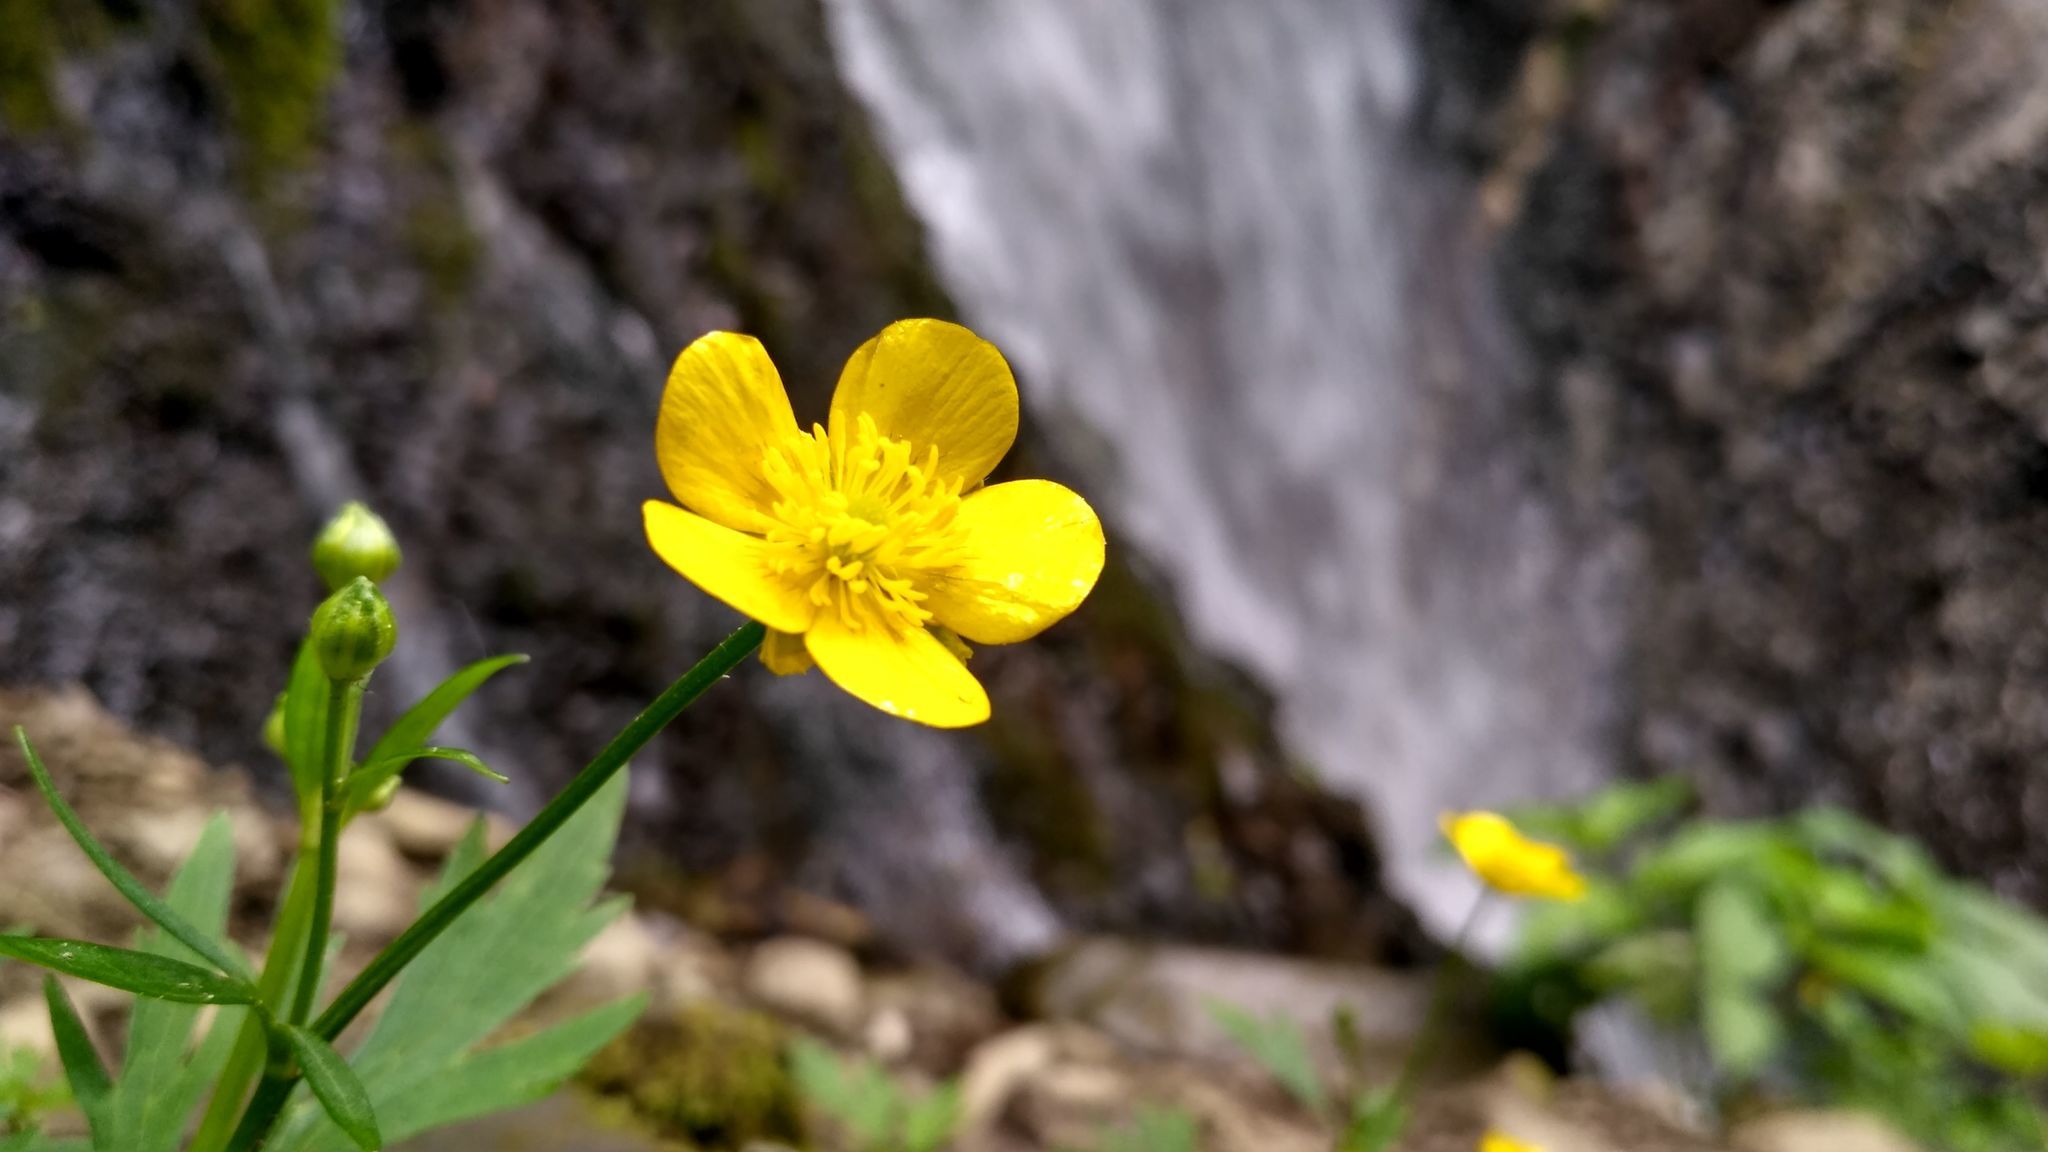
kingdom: Plantae
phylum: Tracheophyta
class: Magnoliopsida
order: Ranunculales
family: Ranunculaceae
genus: Ranunculus
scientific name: Ranunculus repens
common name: Creeping buttercup
